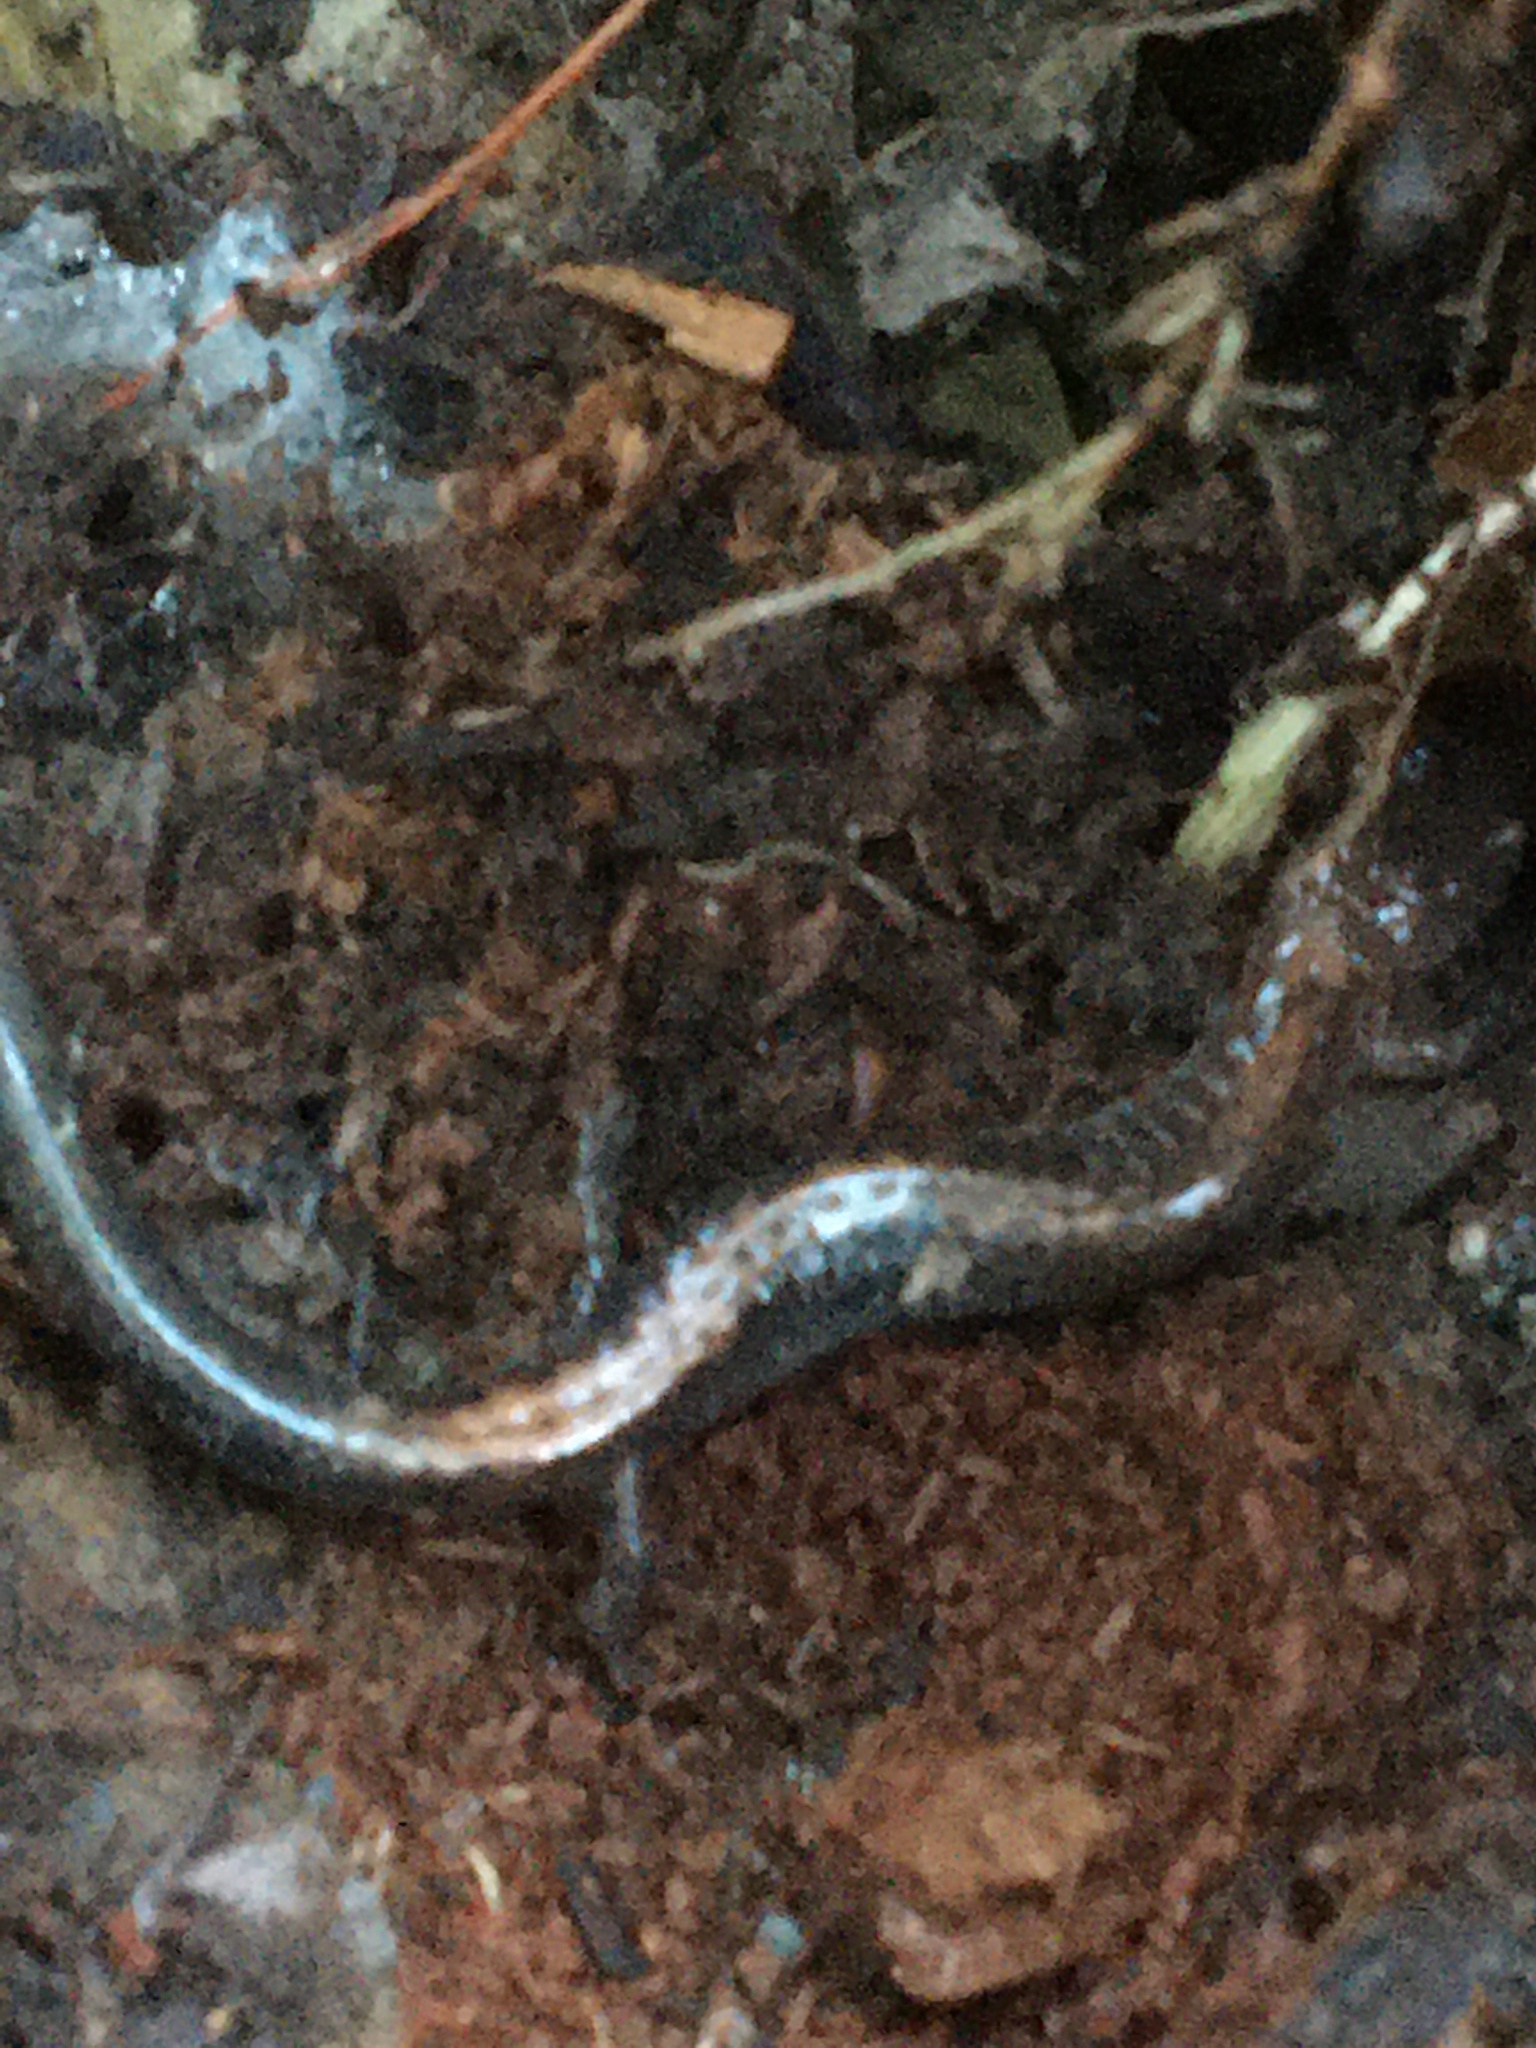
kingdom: Animalia
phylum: Chordata
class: Amphibia
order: Caudata
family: Plethodontidae
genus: Plethodon
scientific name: Plethodon cinereus
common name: Redback salamander
